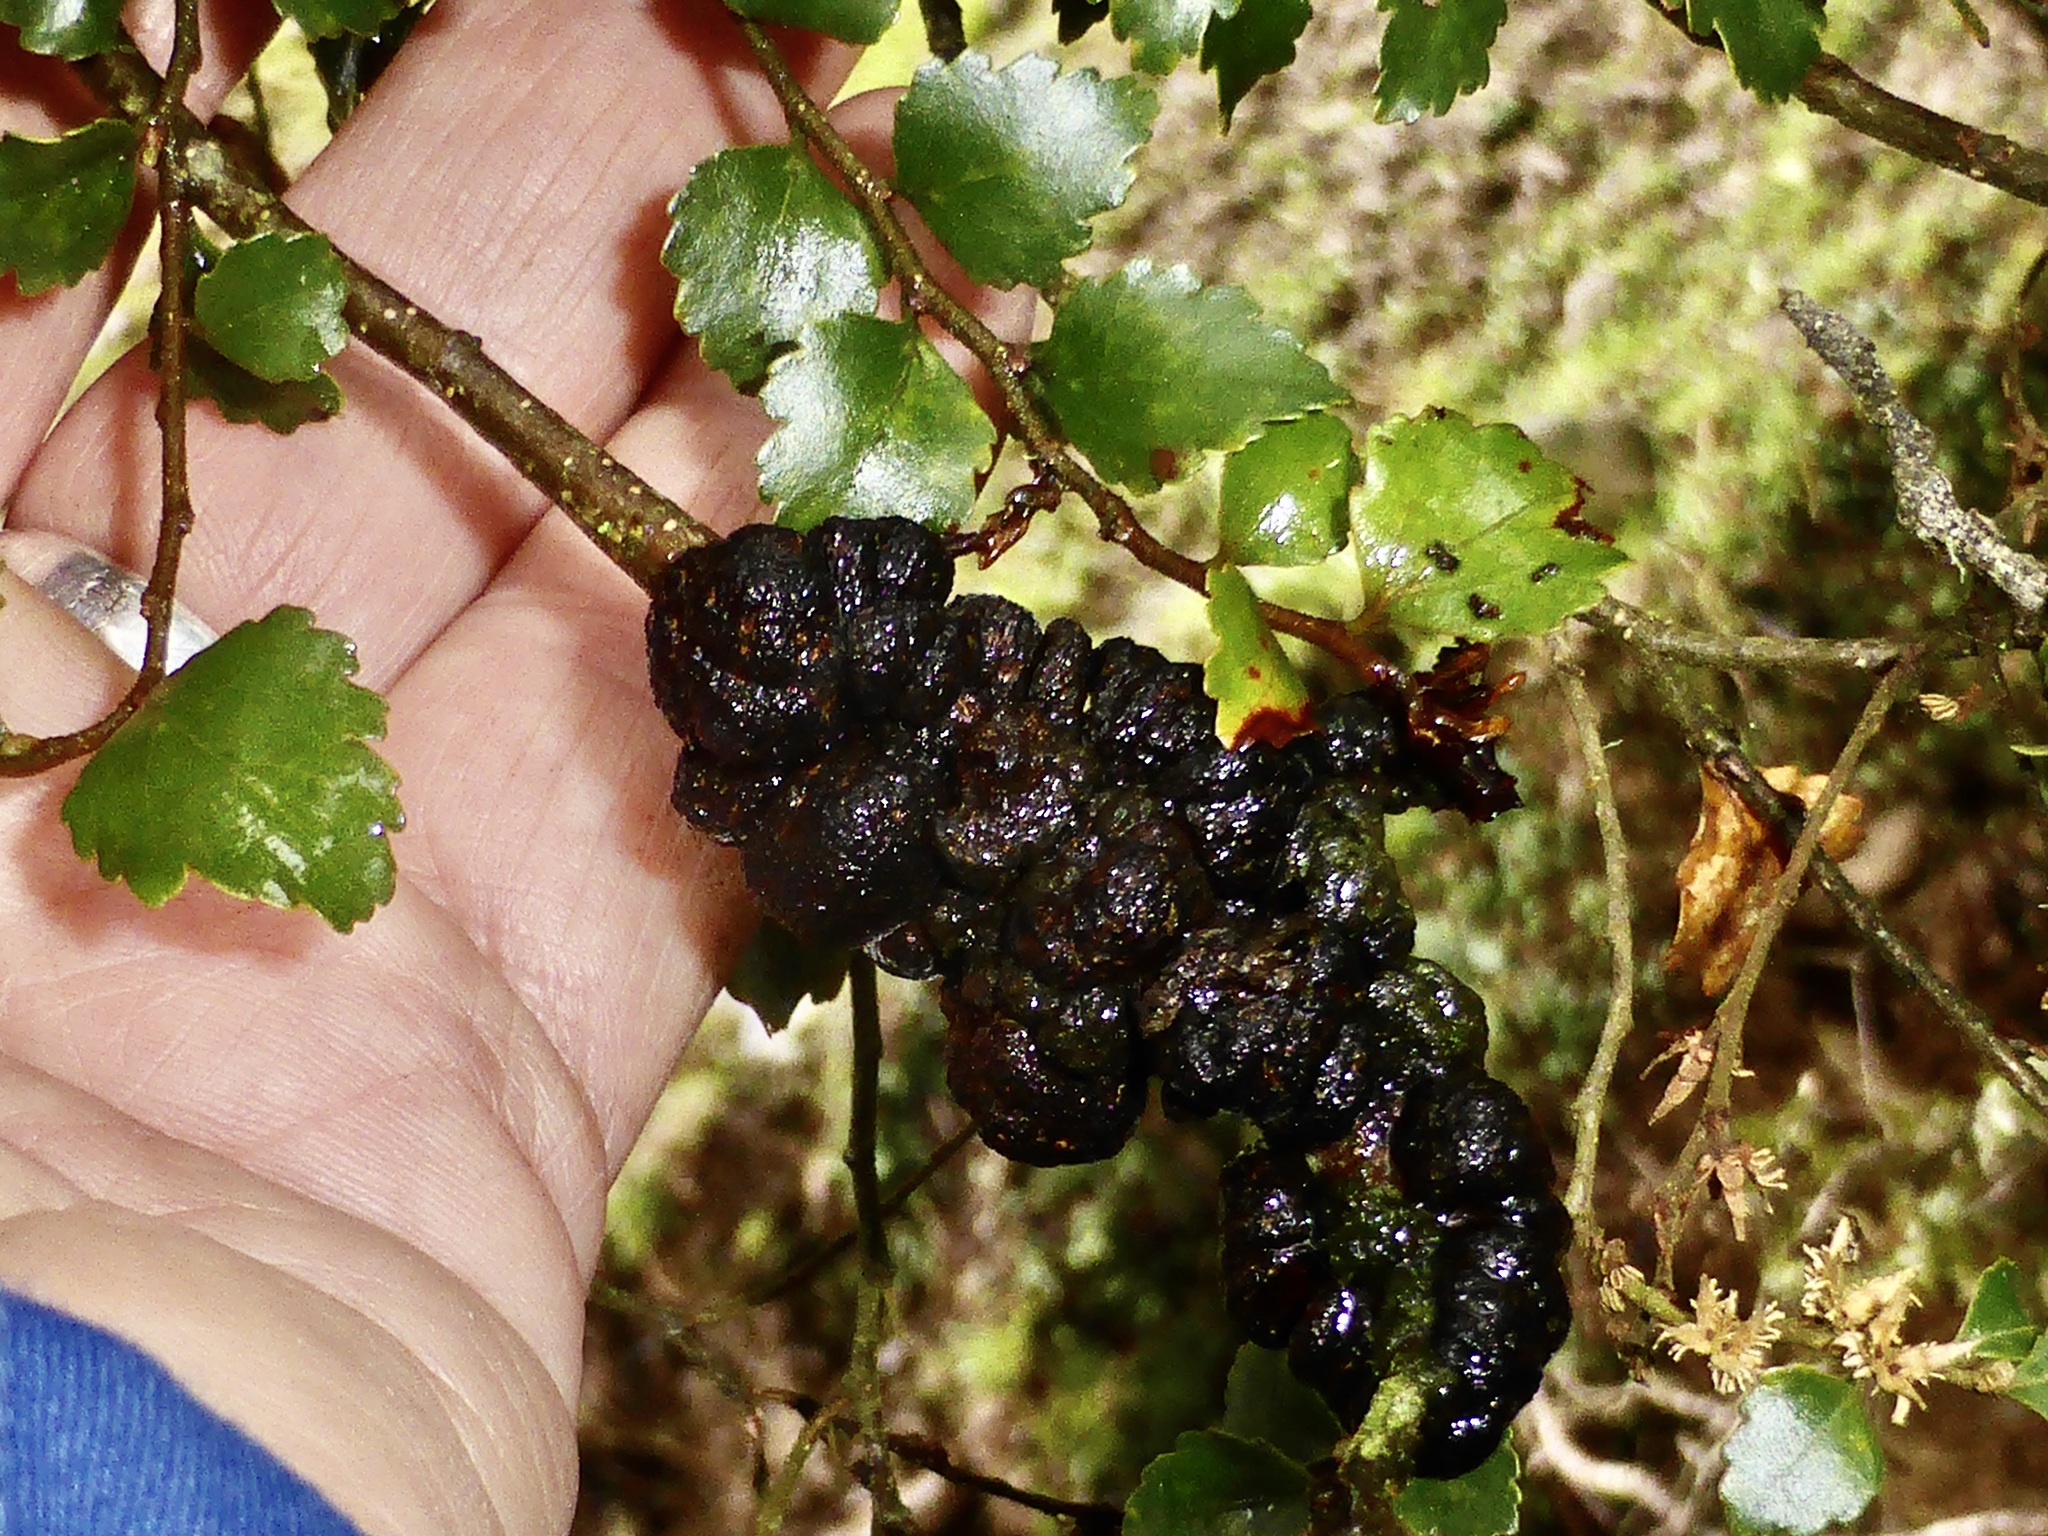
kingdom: Plantae
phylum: Tracheophyta
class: Magnoliopsida
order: Fagales
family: Nothofagaceae
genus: Nothofagus
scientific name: Nothofagus menziesii
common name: Silver beech
